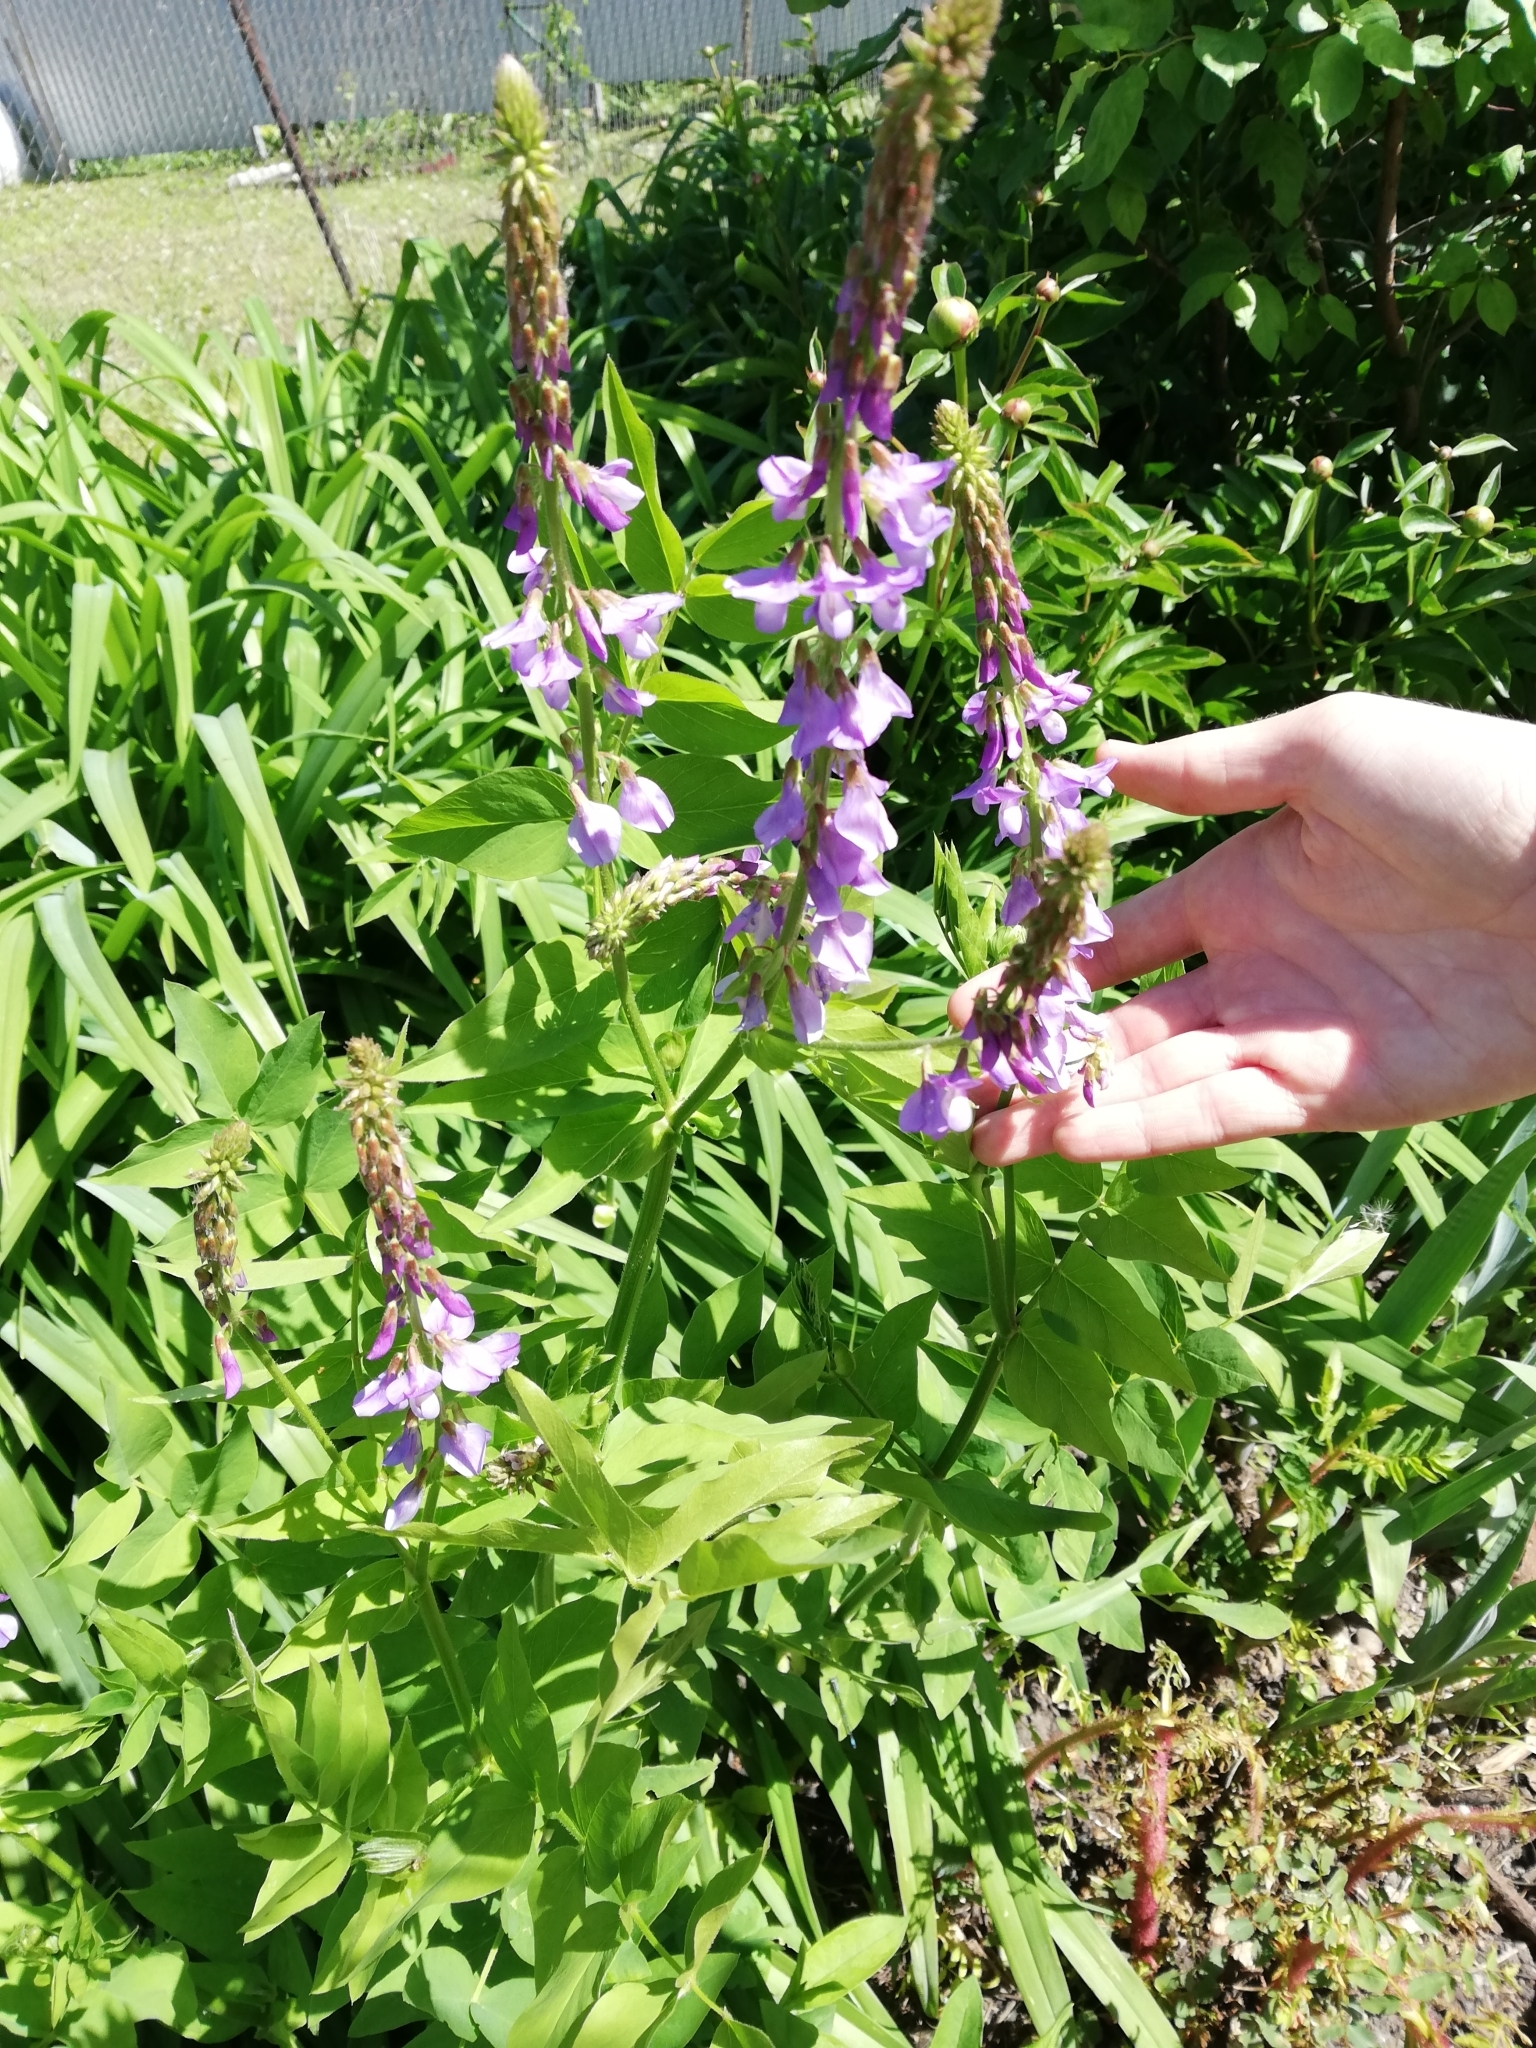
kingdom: Plantae
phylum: Tracheophyta
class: Magnoliopsida
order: Fabales
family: Fabaceae
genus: Galega
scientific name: Galega orientalis
